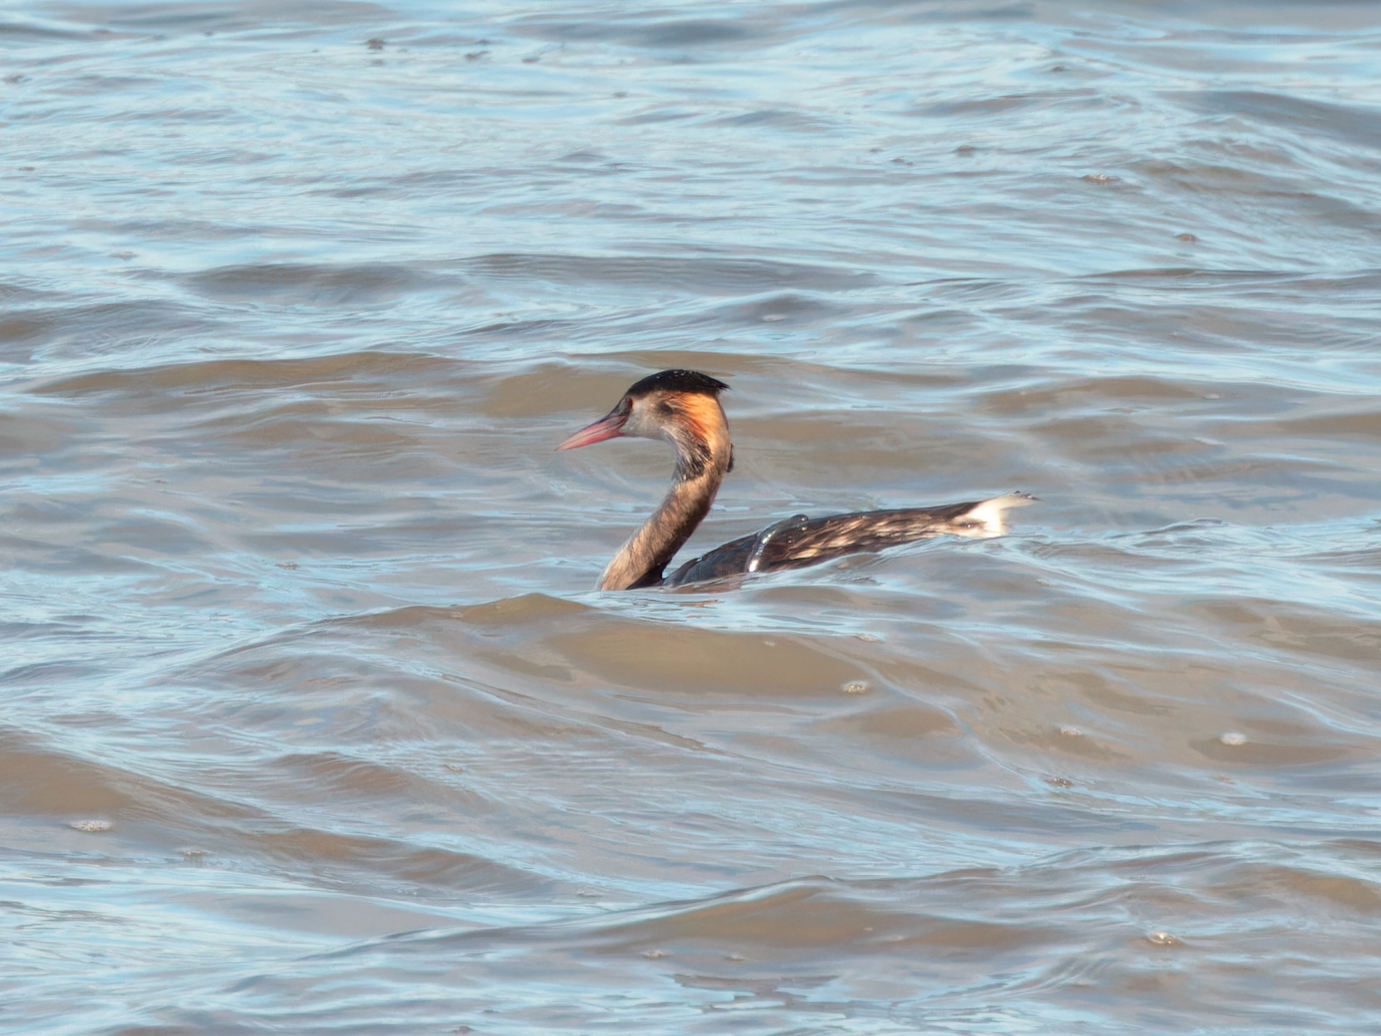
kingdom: Animalia
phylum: Chordata
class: Aves
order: Podicipediformes
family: Podicipedidae
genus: Podiceps
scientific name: Podiceps cristatus
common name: Great crested grebe
